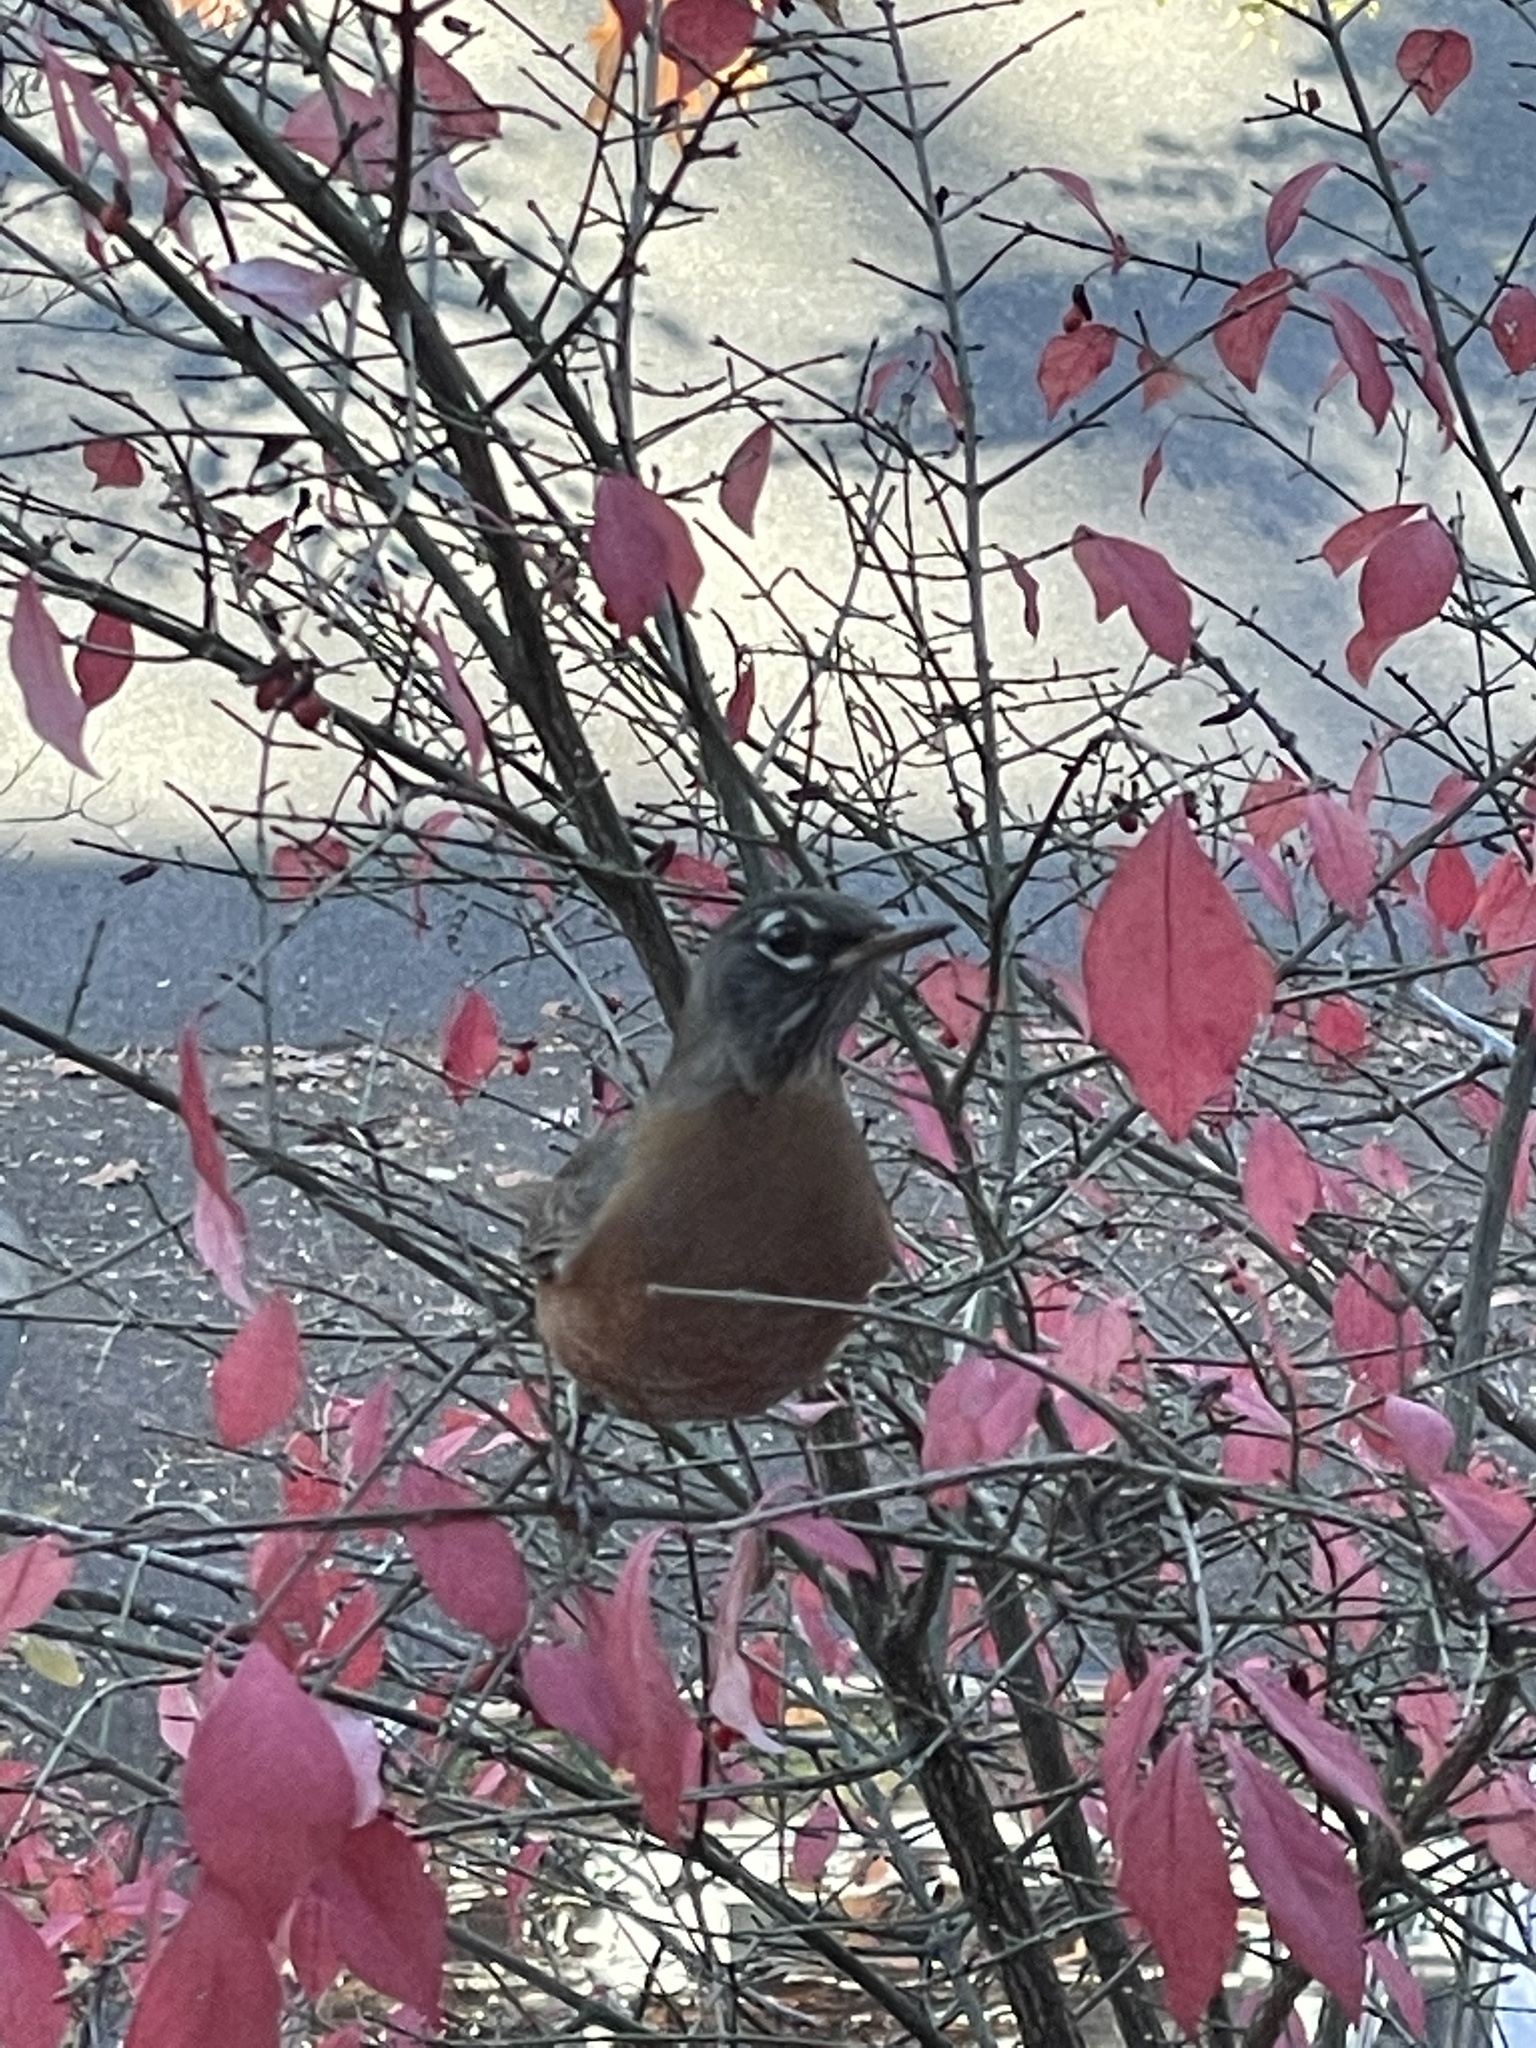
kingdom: Animalia
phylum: Chordata
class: Aves
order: Passeriformes
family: Turdidae
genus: Turdus
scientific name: Turdus migratorius
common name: American robin
